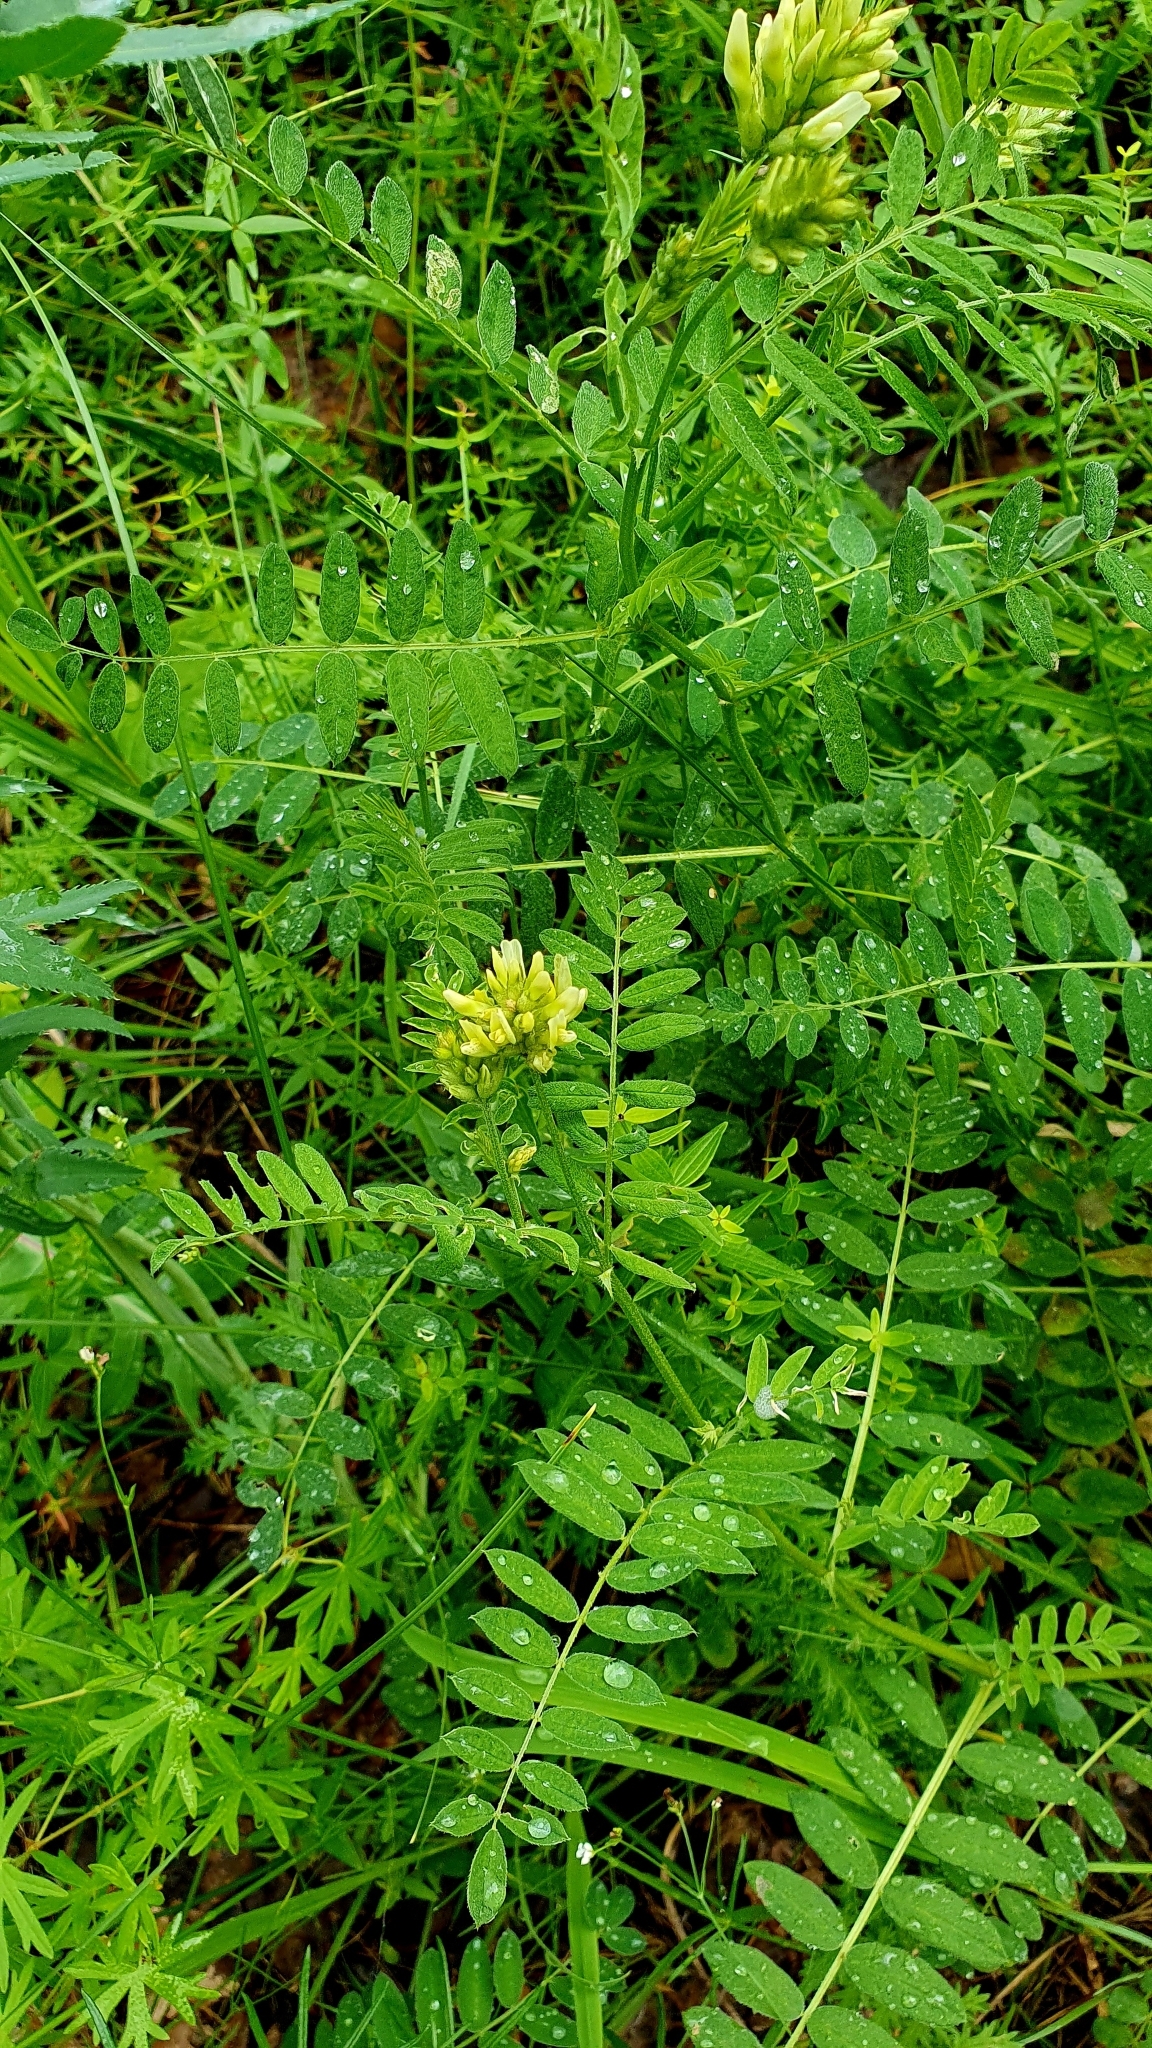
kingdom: Plantae
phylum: Tracheophyta
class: Magnoliopsida
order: Fabales
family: Fabaceae
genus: Astragalus
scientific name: Astragalus cicer
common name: Chick-pea milk-vetch
